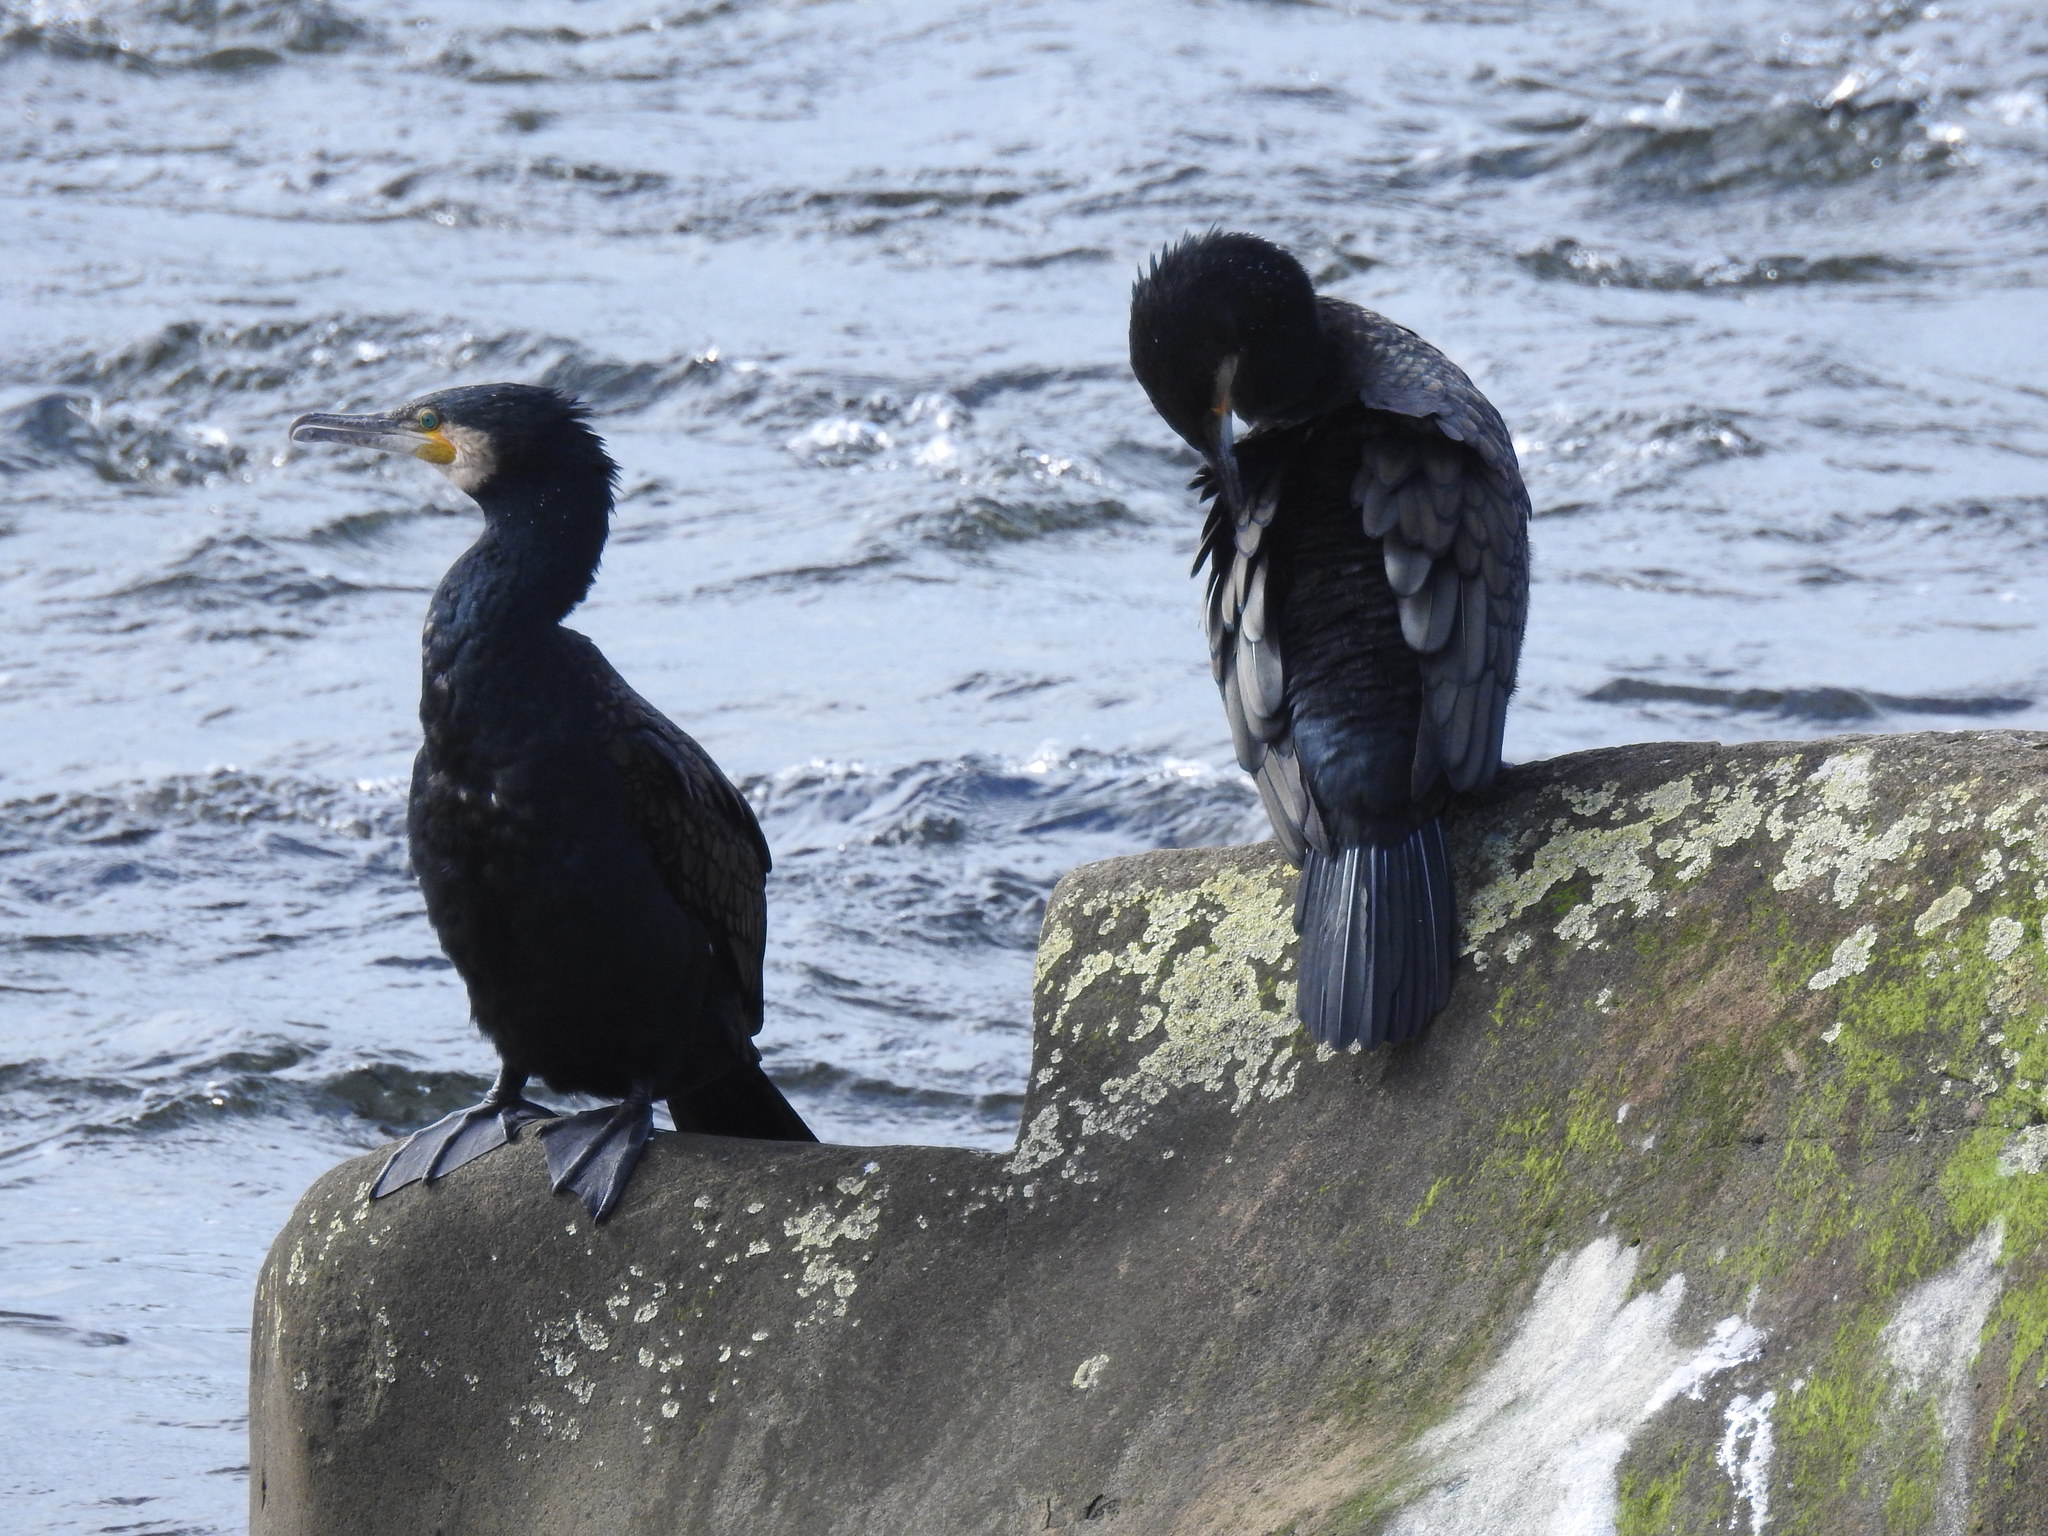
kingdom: Animalia
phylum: Chordata
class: Aves
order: Suliformes
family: Phalacrocoracidae
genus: Phalacrocorax
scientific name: Phalacrocorax carbo
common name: Great cormorant
